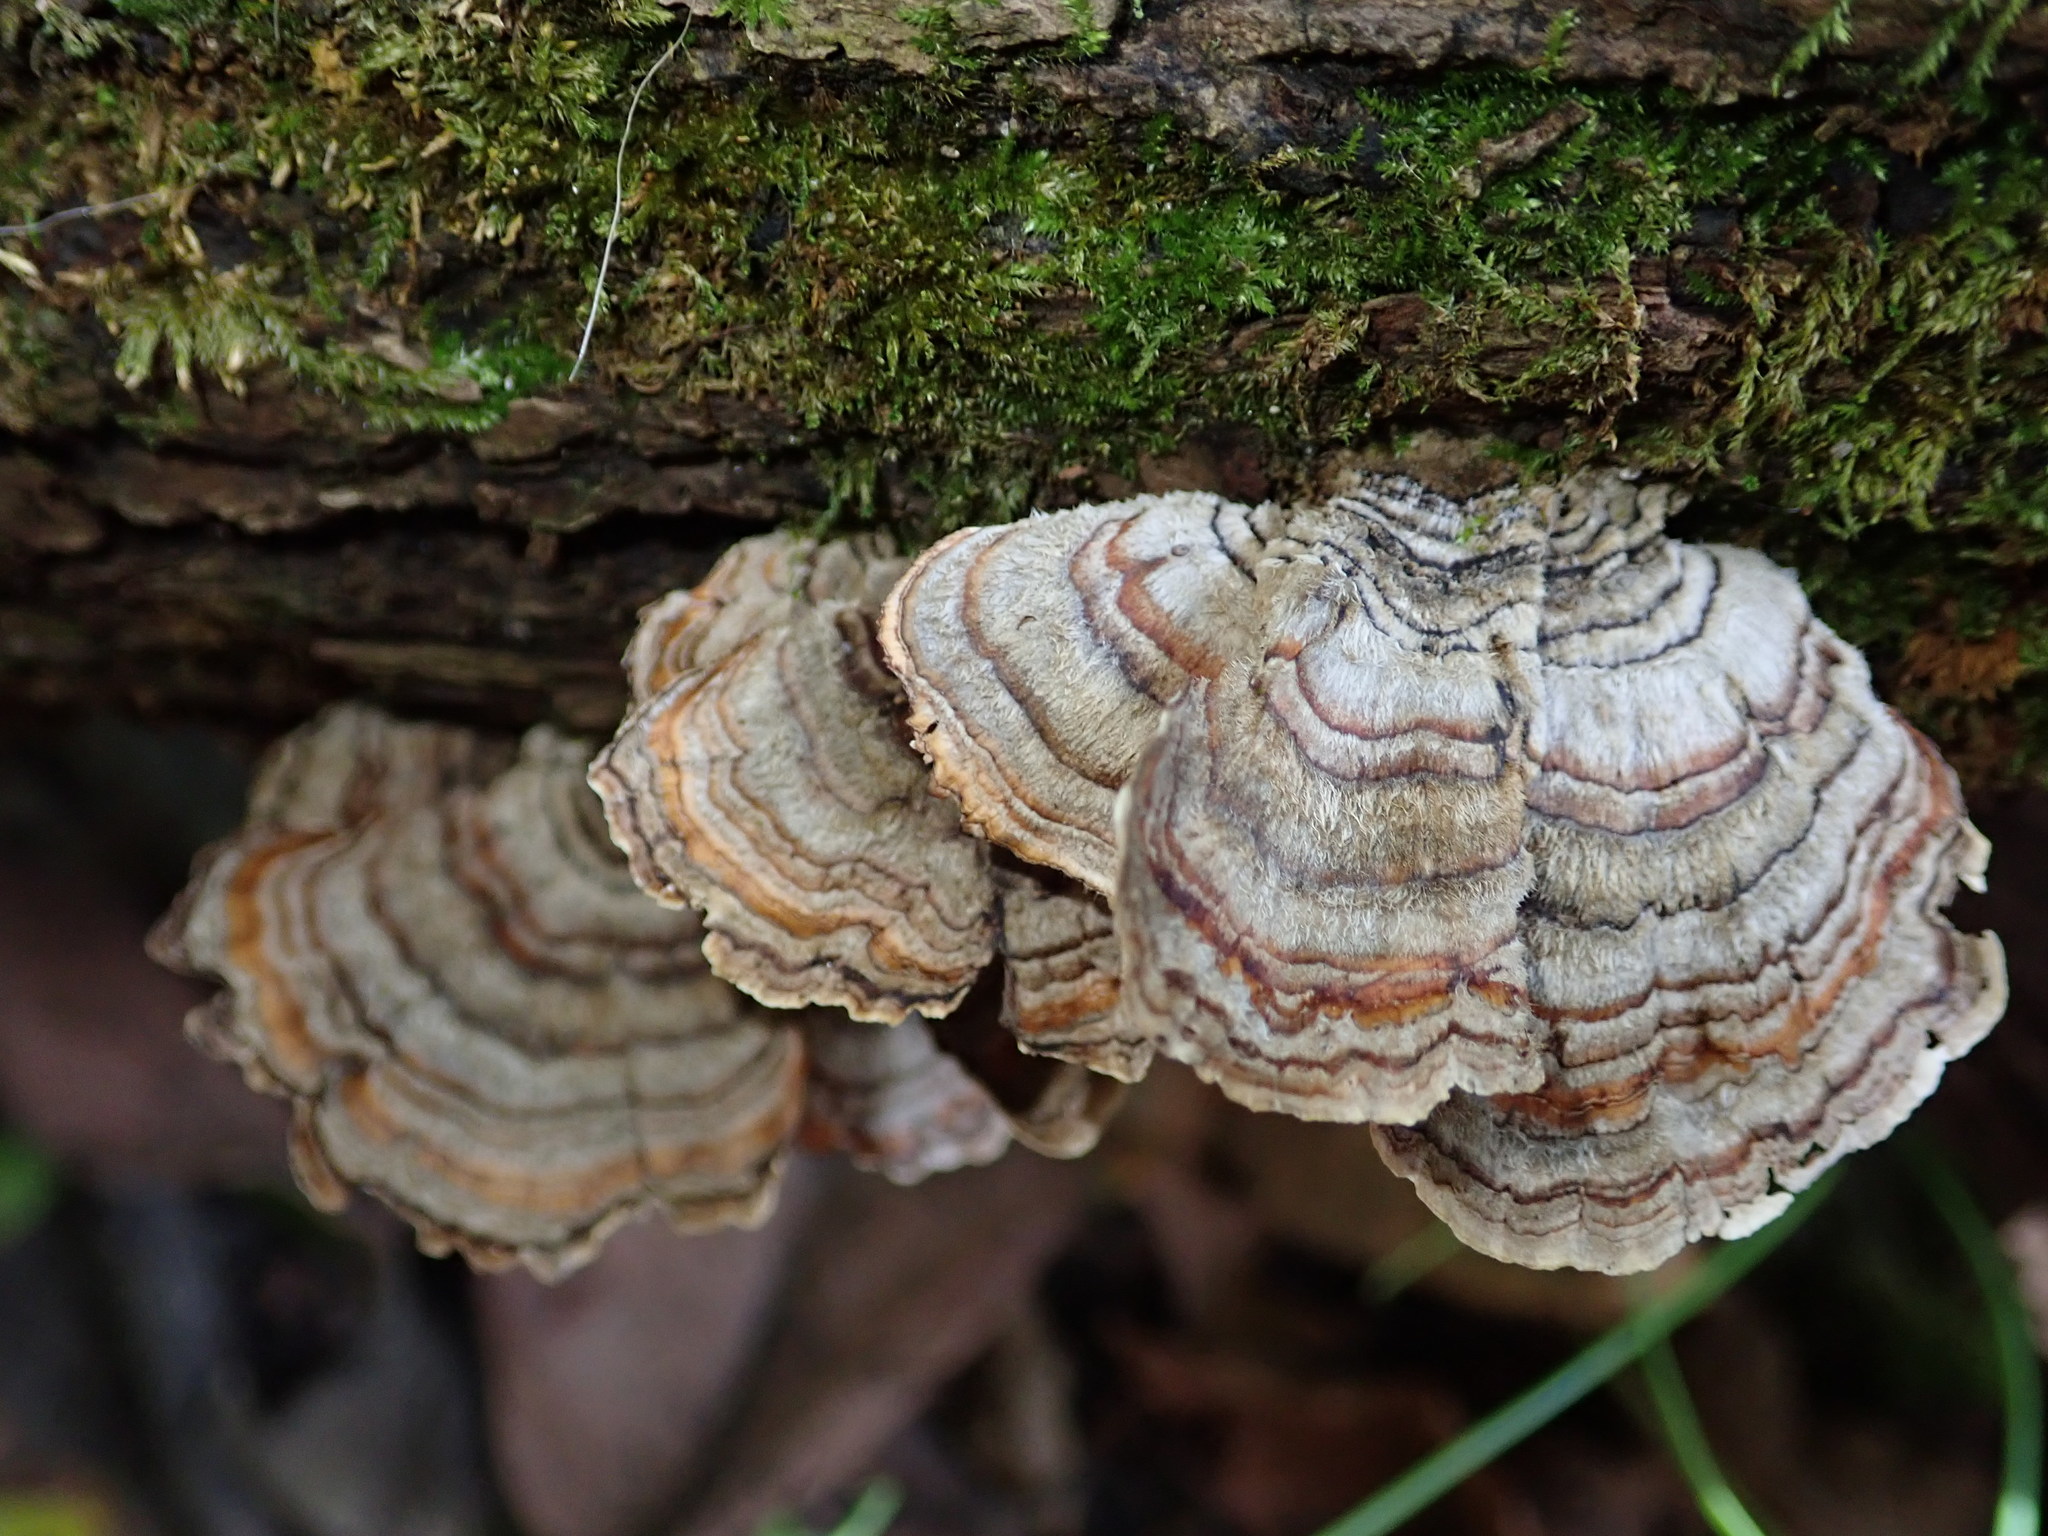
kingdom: Fungi
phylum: Basidiomycota
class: Agaricomycetes
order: Polyporales
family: Polyporaceae
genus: Trametes
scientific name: Trametes versicolor
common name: Turkeytail
